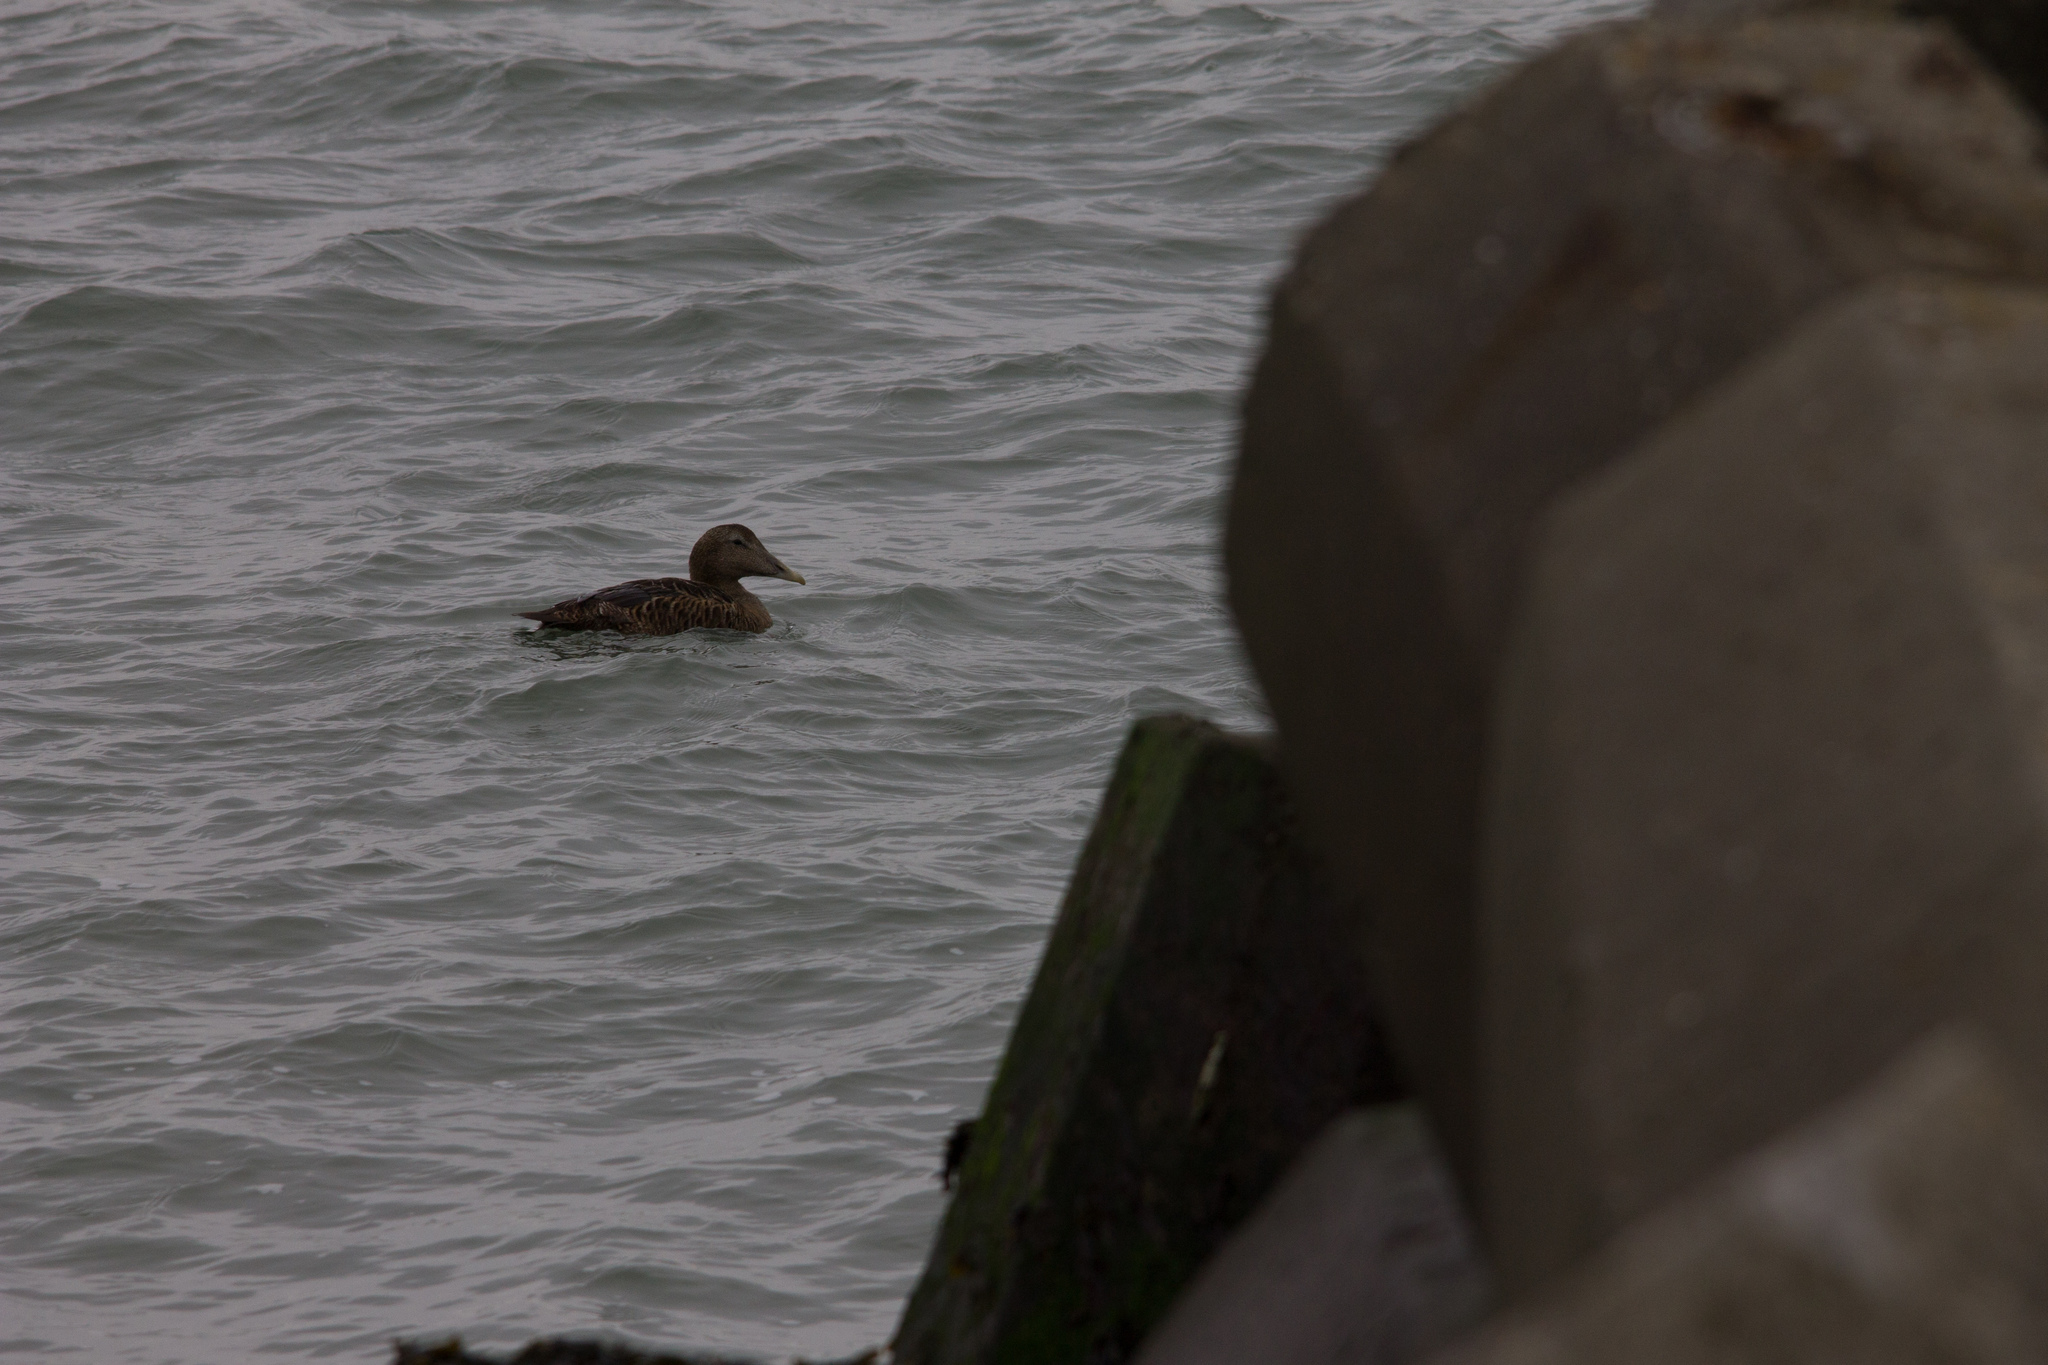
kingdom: Animalia
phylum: Chordata
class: Aves
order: Anseriformes
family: Anatidae
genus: Somateria
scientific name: Somateria mollissima
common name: Common eider
